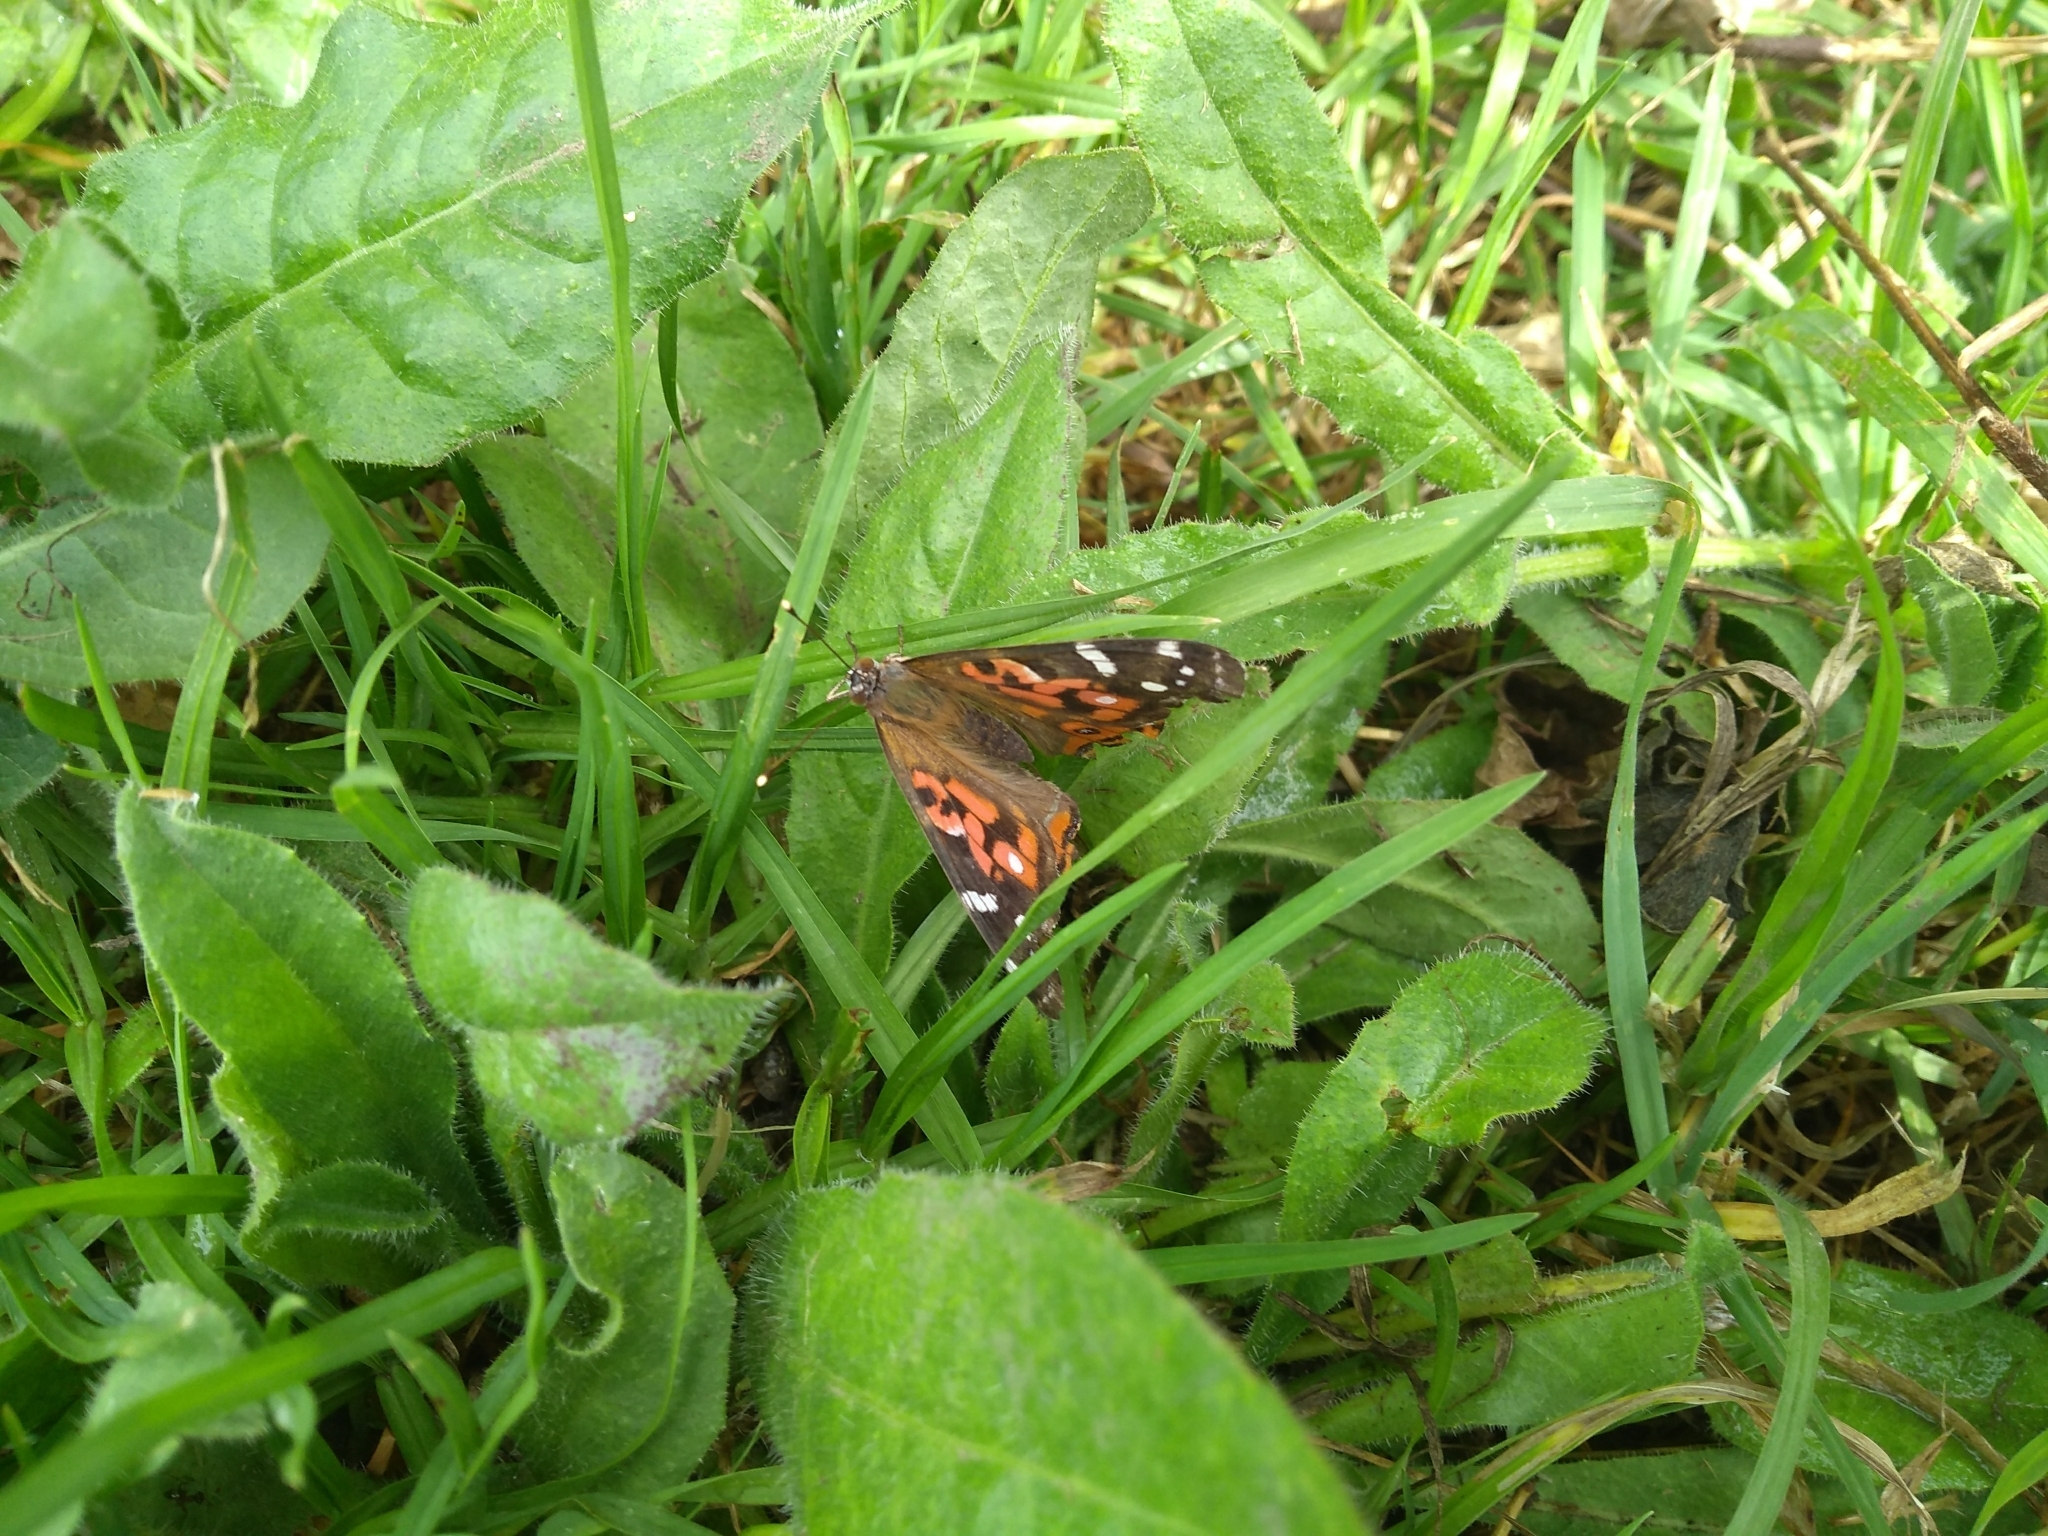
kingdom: Animalia
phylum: Arthropoda
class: Insecta
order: Lepidoptera
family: Nymphalidae
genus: Vanessa
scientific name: Vanessa braziliensis
